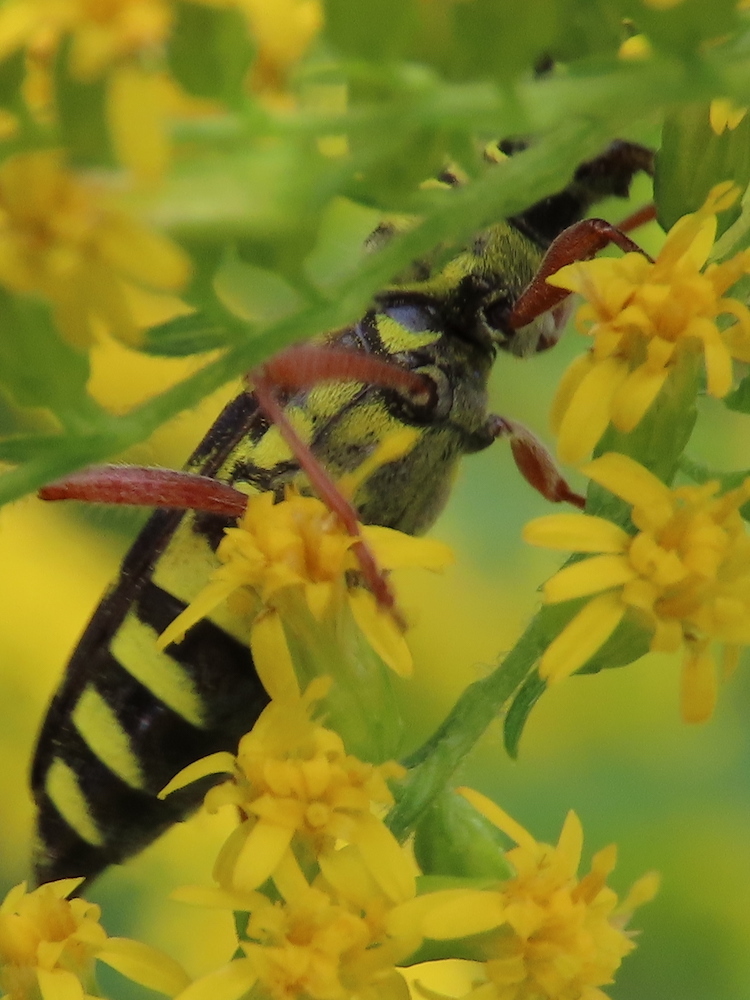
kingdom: Animalia
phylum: Arthropoda
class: Insecta
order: Coleoptera
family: Cerambycidae
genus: Megacyllene
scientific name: Megacyllene robiniae
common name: Locust borer
